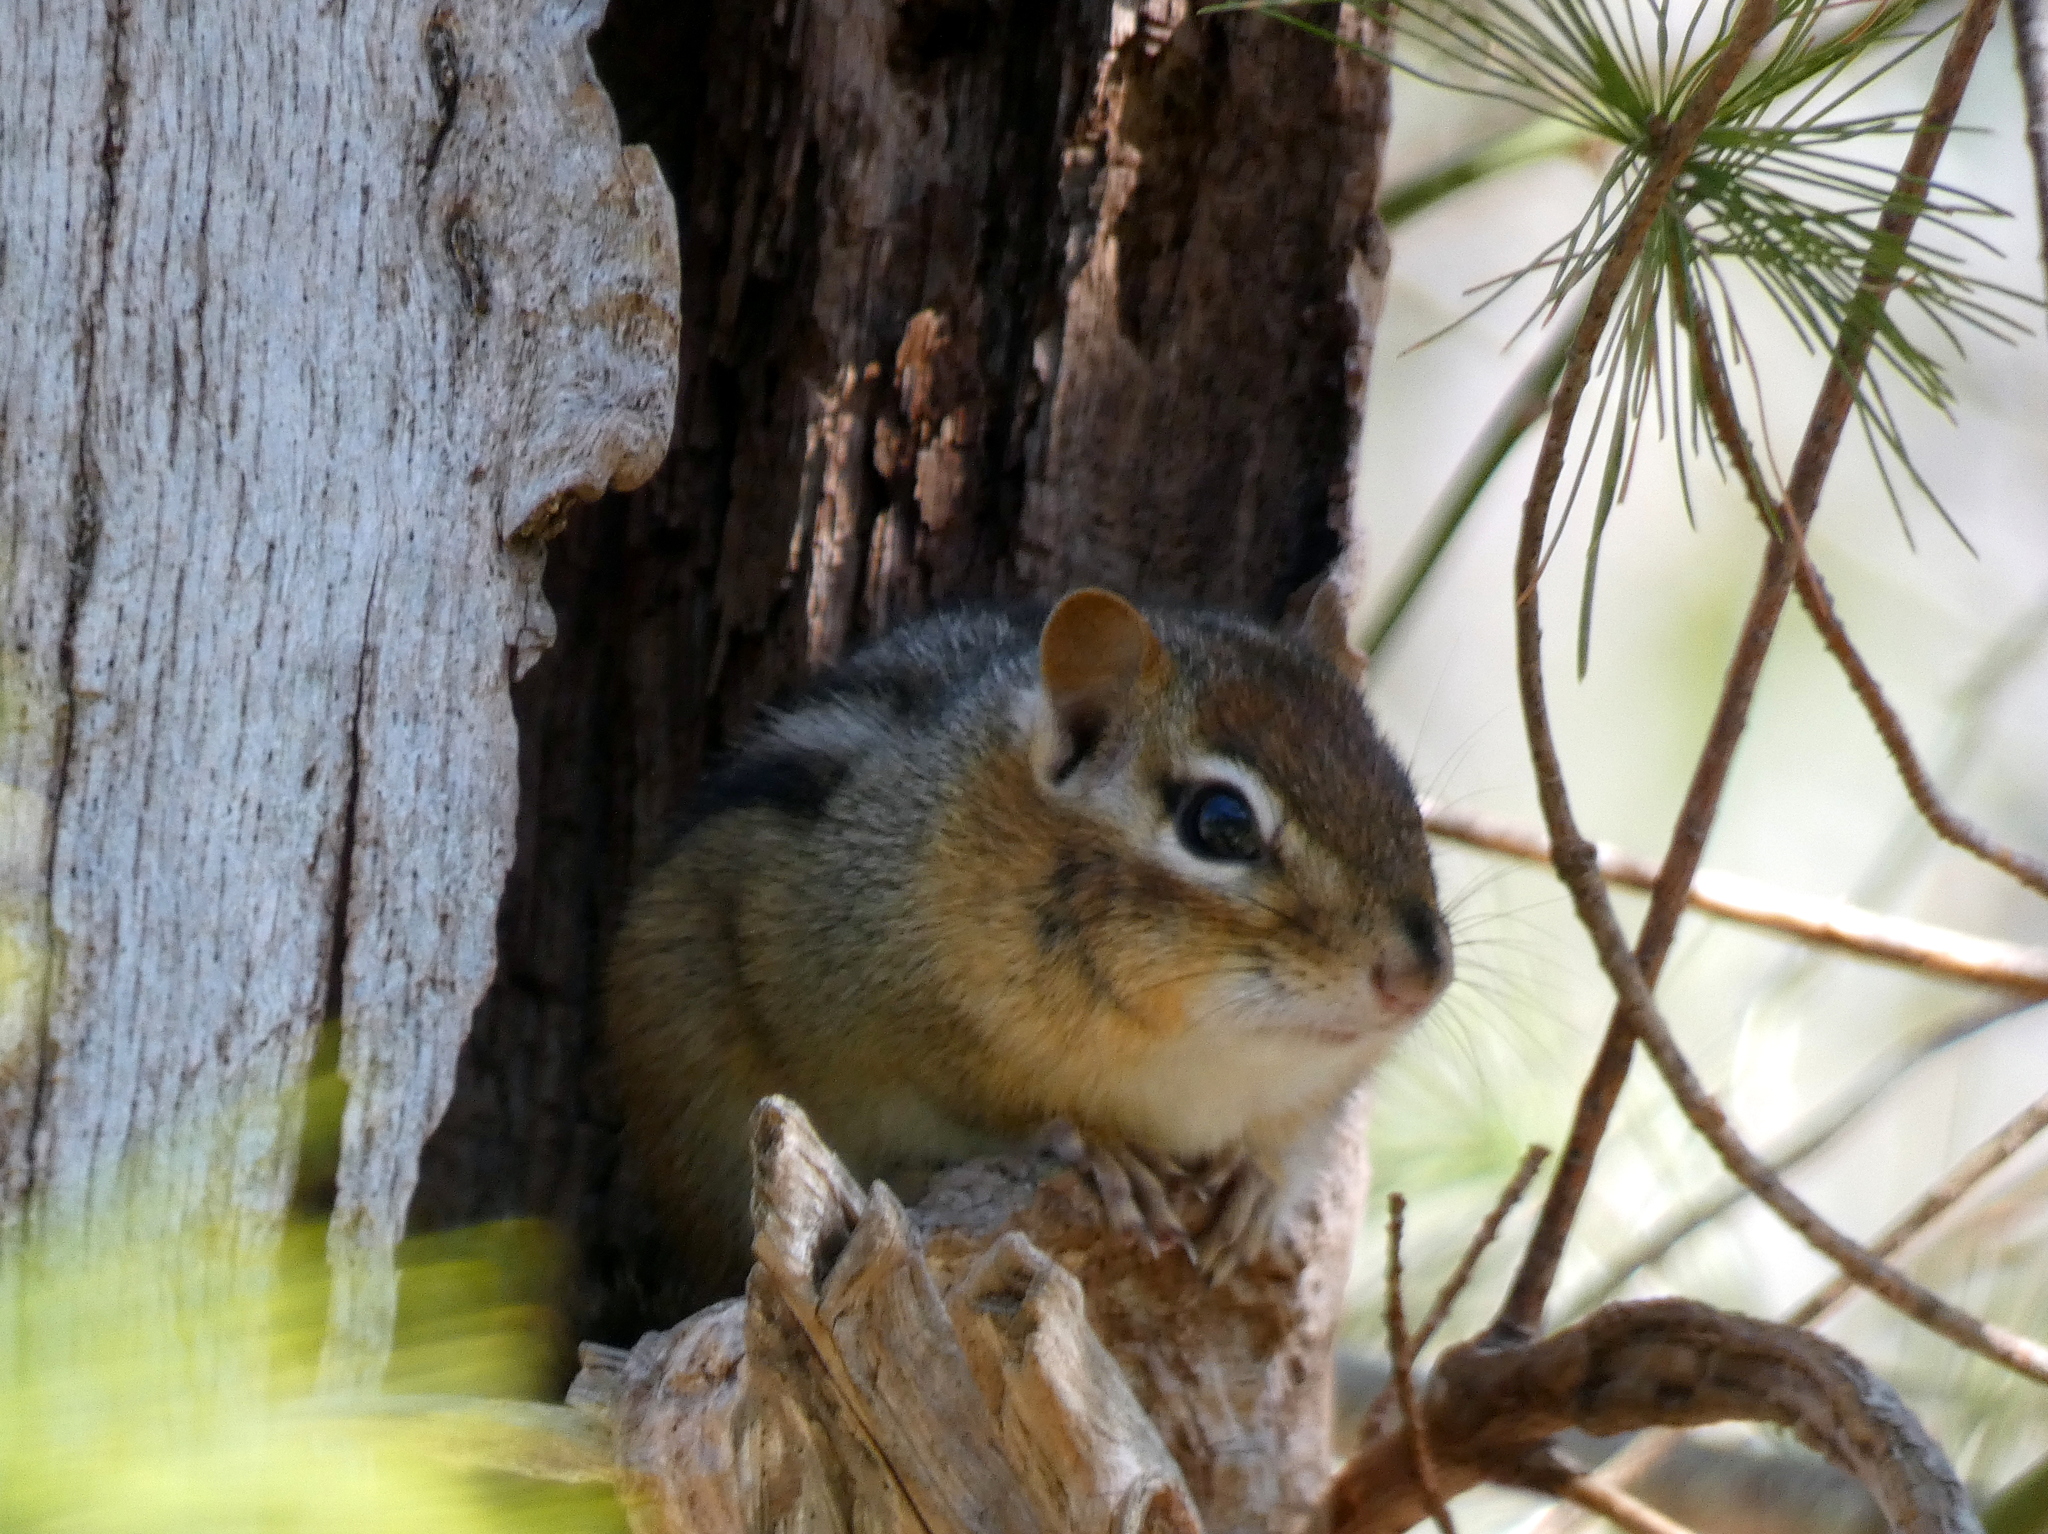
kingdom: Animalia
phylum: Chordata
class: Mammalia
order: Rodentia
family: Sciuridae
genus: Tamias
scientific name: Tamias striatus
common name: Eastern chipmunk
